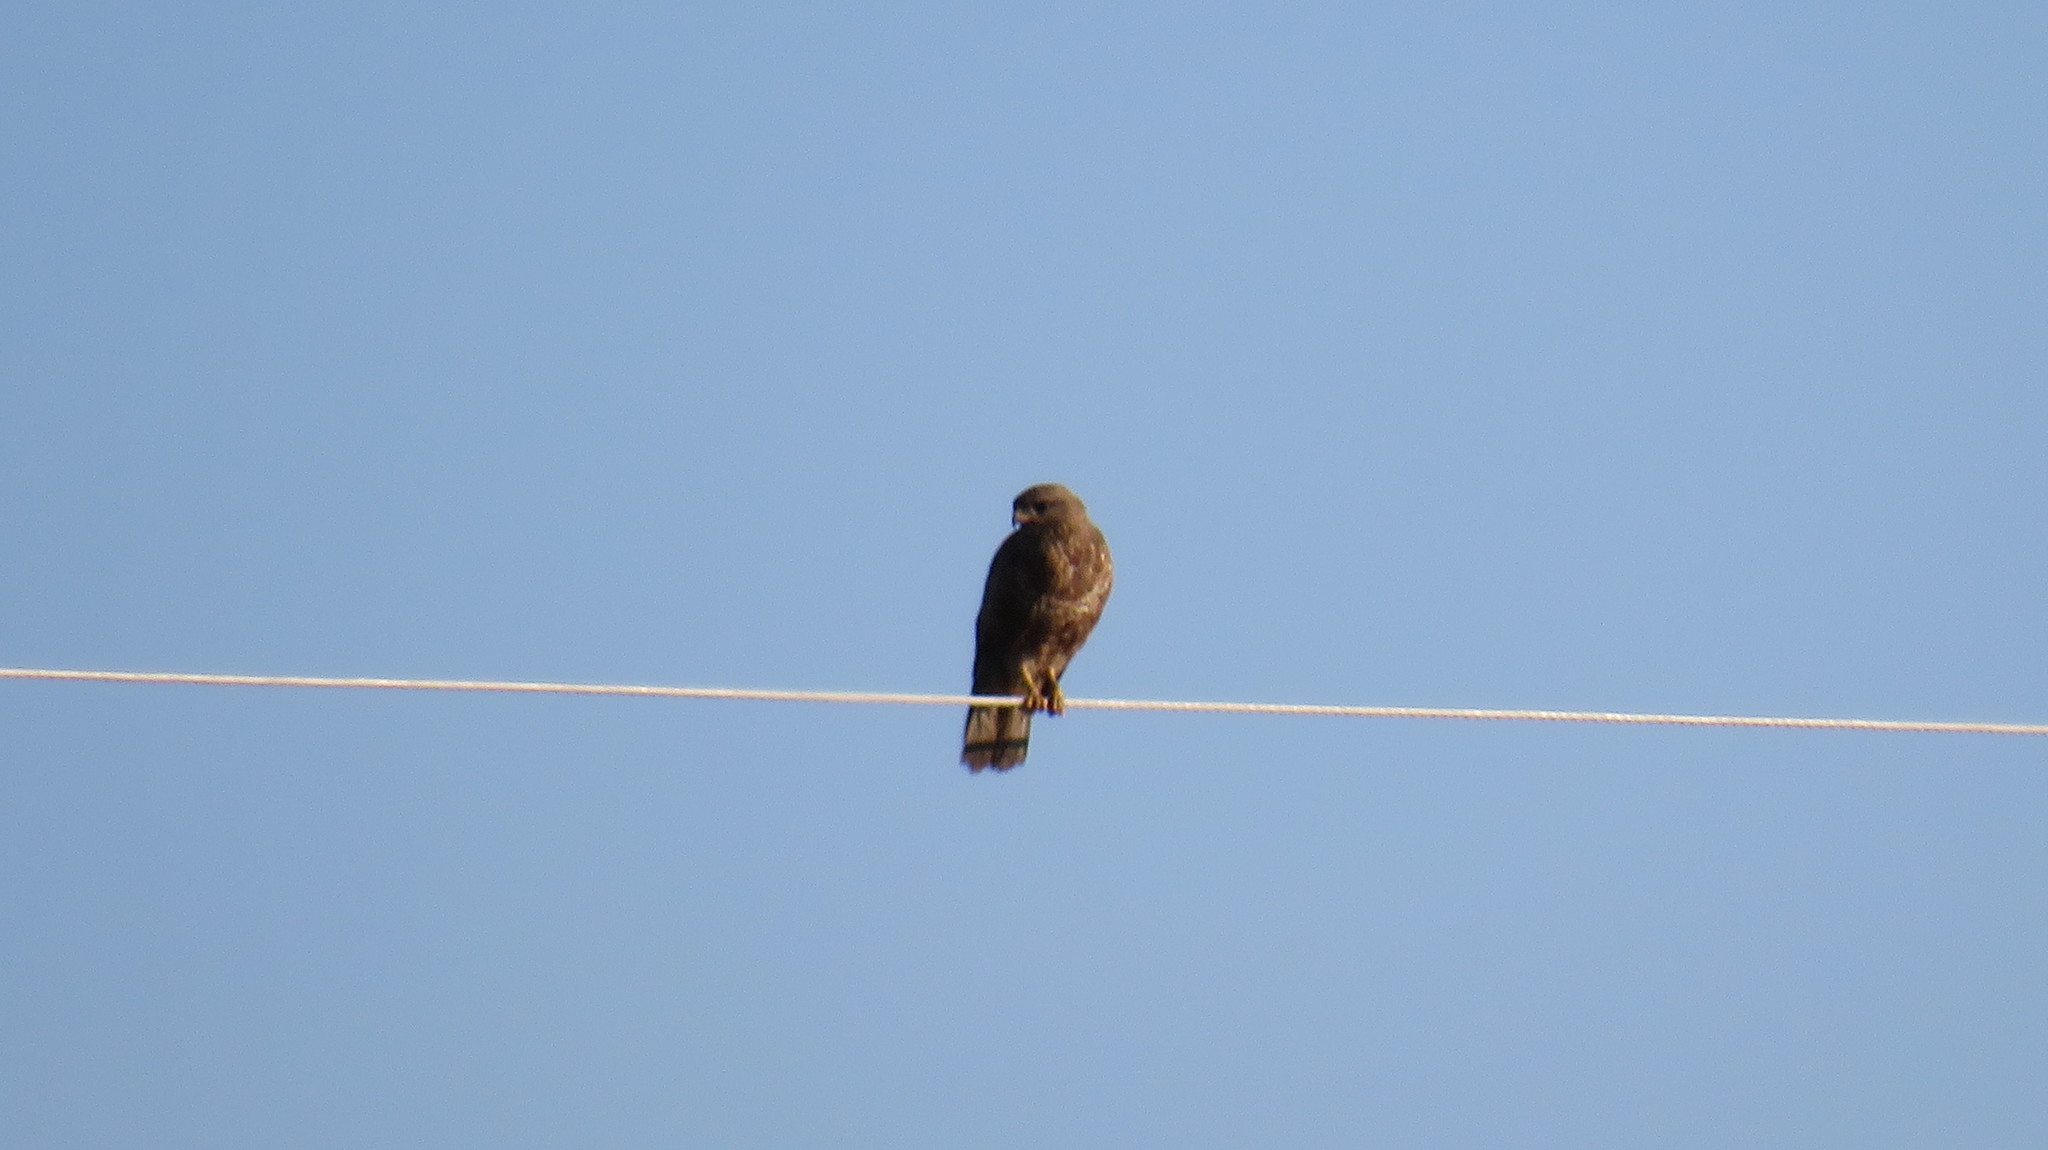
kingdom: Animalia
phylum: Chordata
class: Aves
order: Accipitriformes
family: Accipitridae
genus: Buteo
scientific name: Buteo buteo
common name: Common buzzard
